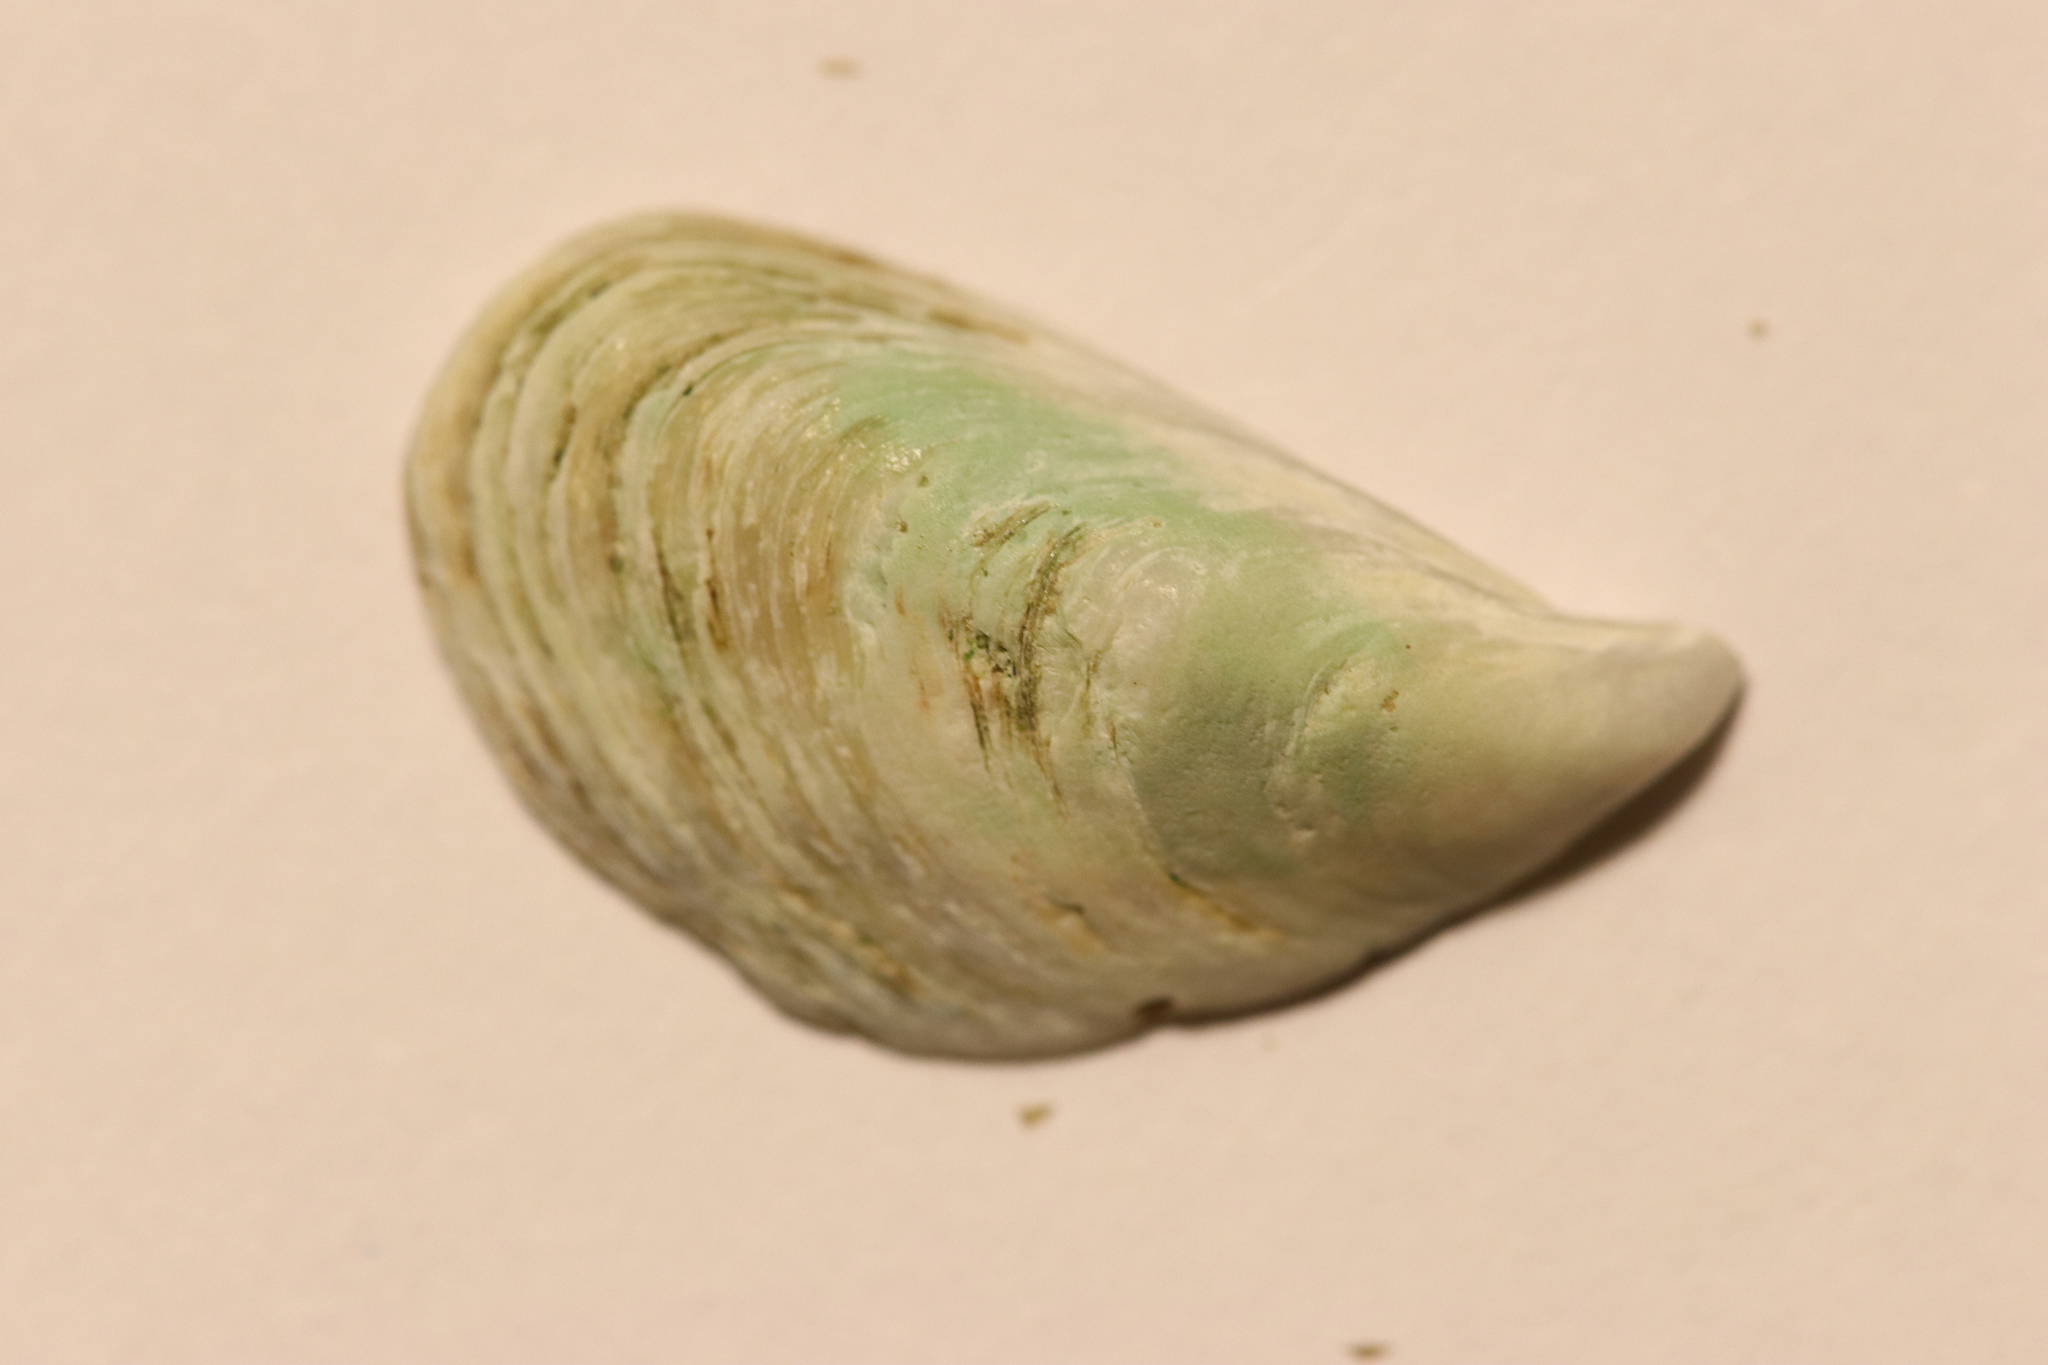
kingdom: Animalia
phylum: Mollusca
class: Bivalvia
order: Myida
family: Dreissenidae
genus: Dreissena
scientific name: Dreissena bugensis
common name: Quagga mussel
